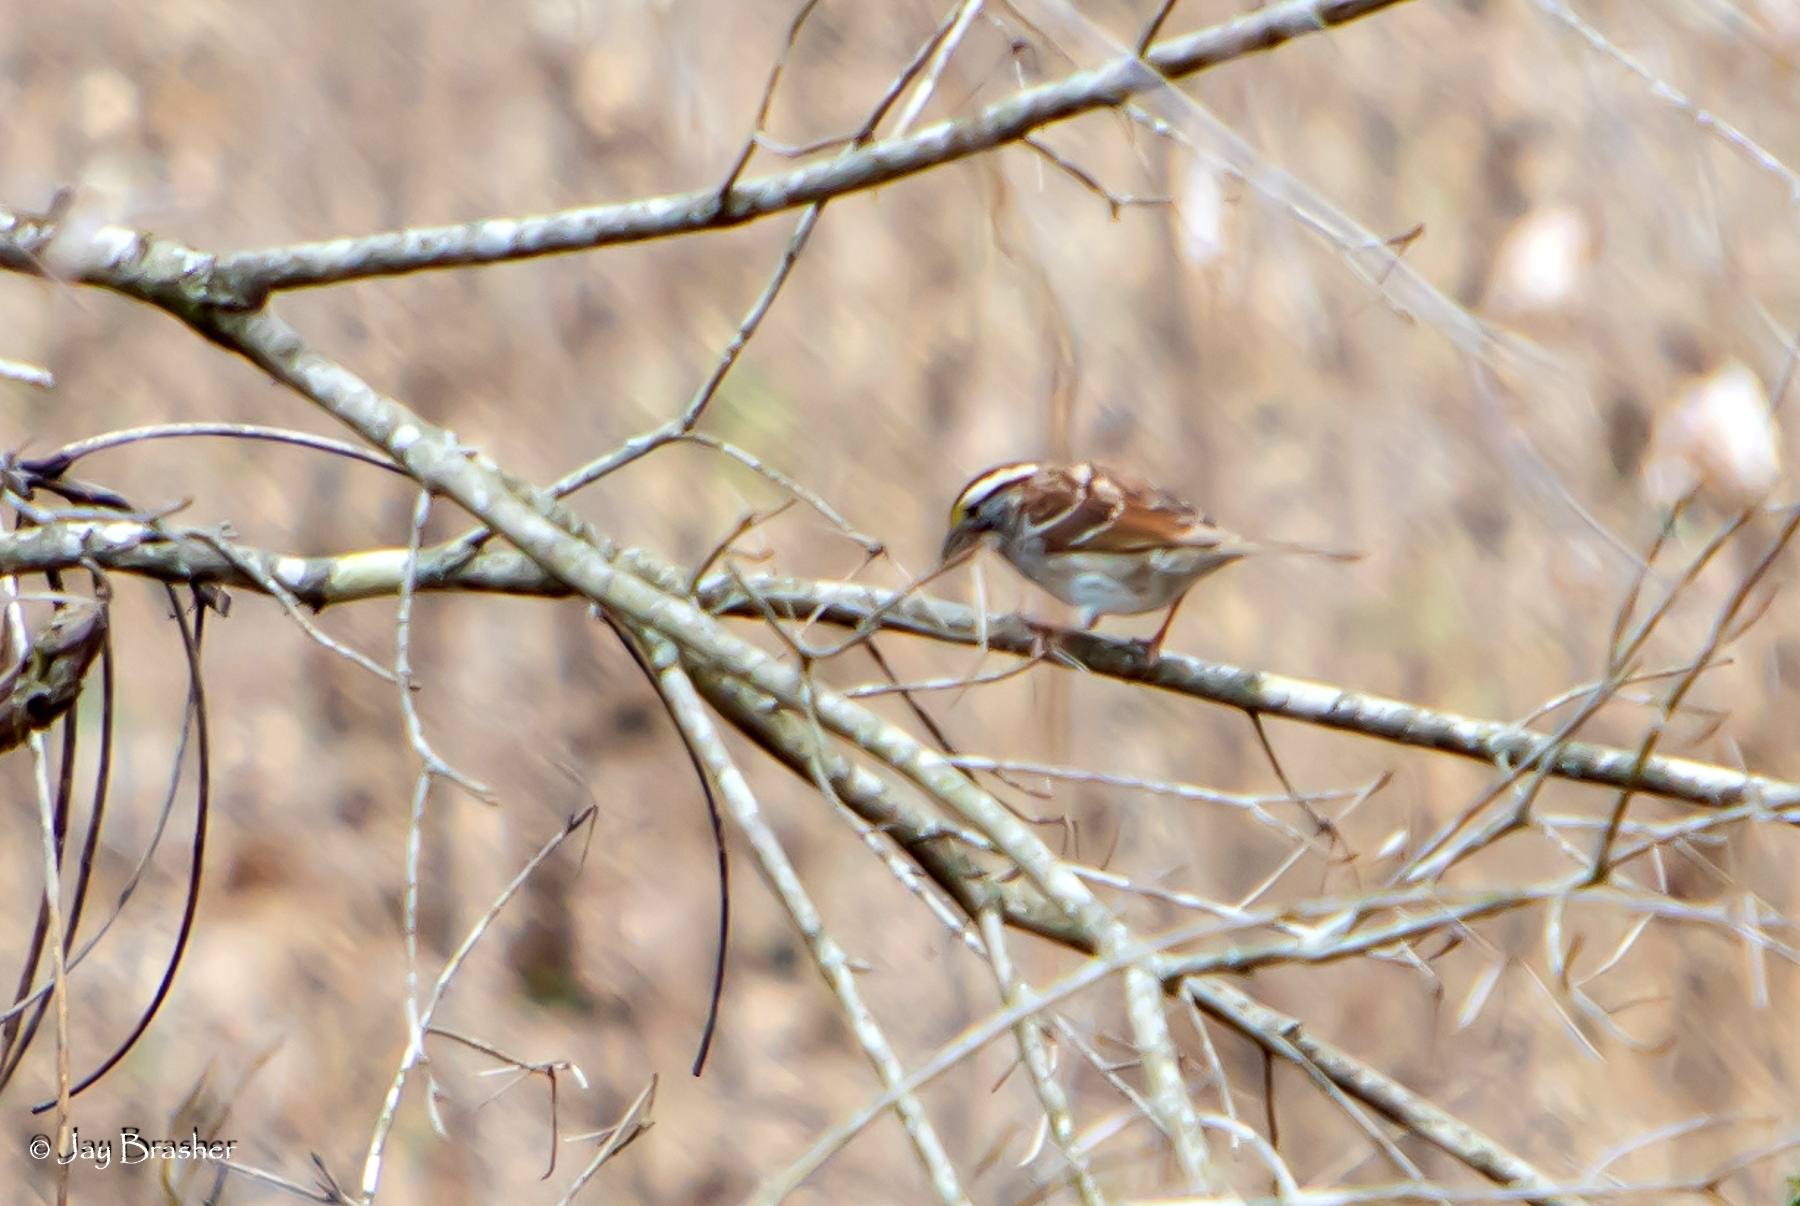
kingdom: Animalia
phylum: Chordata
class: Aves
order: Passeriformes
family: Passerellidae
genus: Zonotrichia
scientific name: Zonotrichia albicollis
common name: White-throated sparrow
